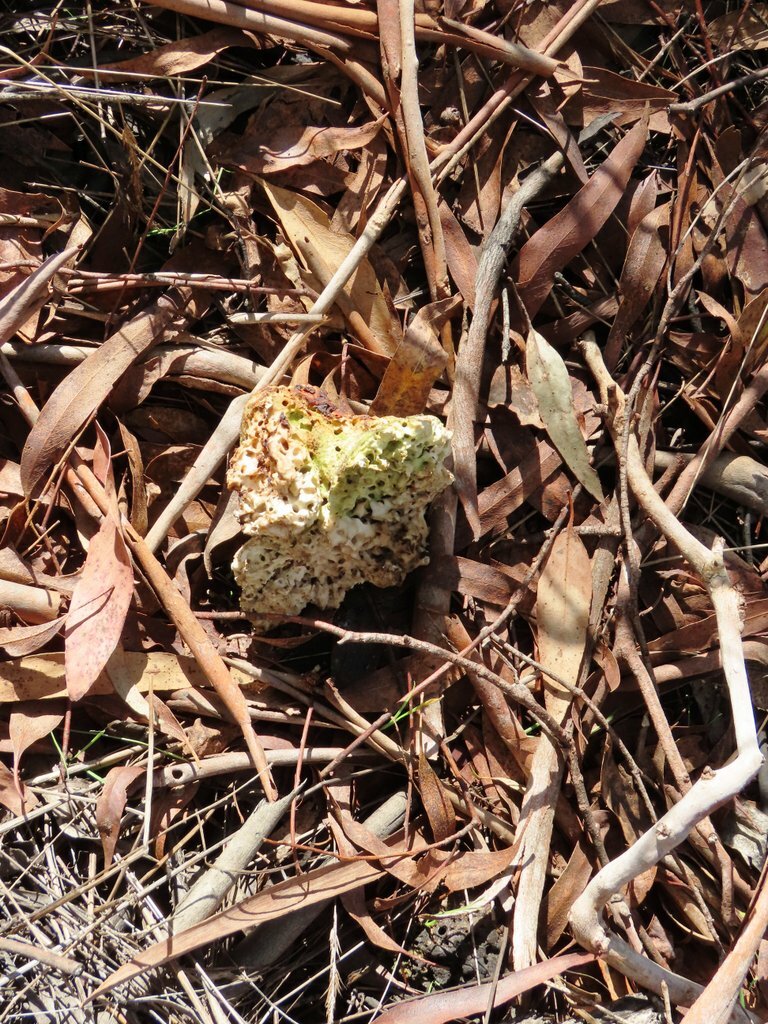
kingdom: Fungi
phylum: Basidiomycota
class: Agaricomycetes
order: Polyporales
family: Laetiporaceae
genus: Laetiporus
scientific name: Laetiporus portentosus
